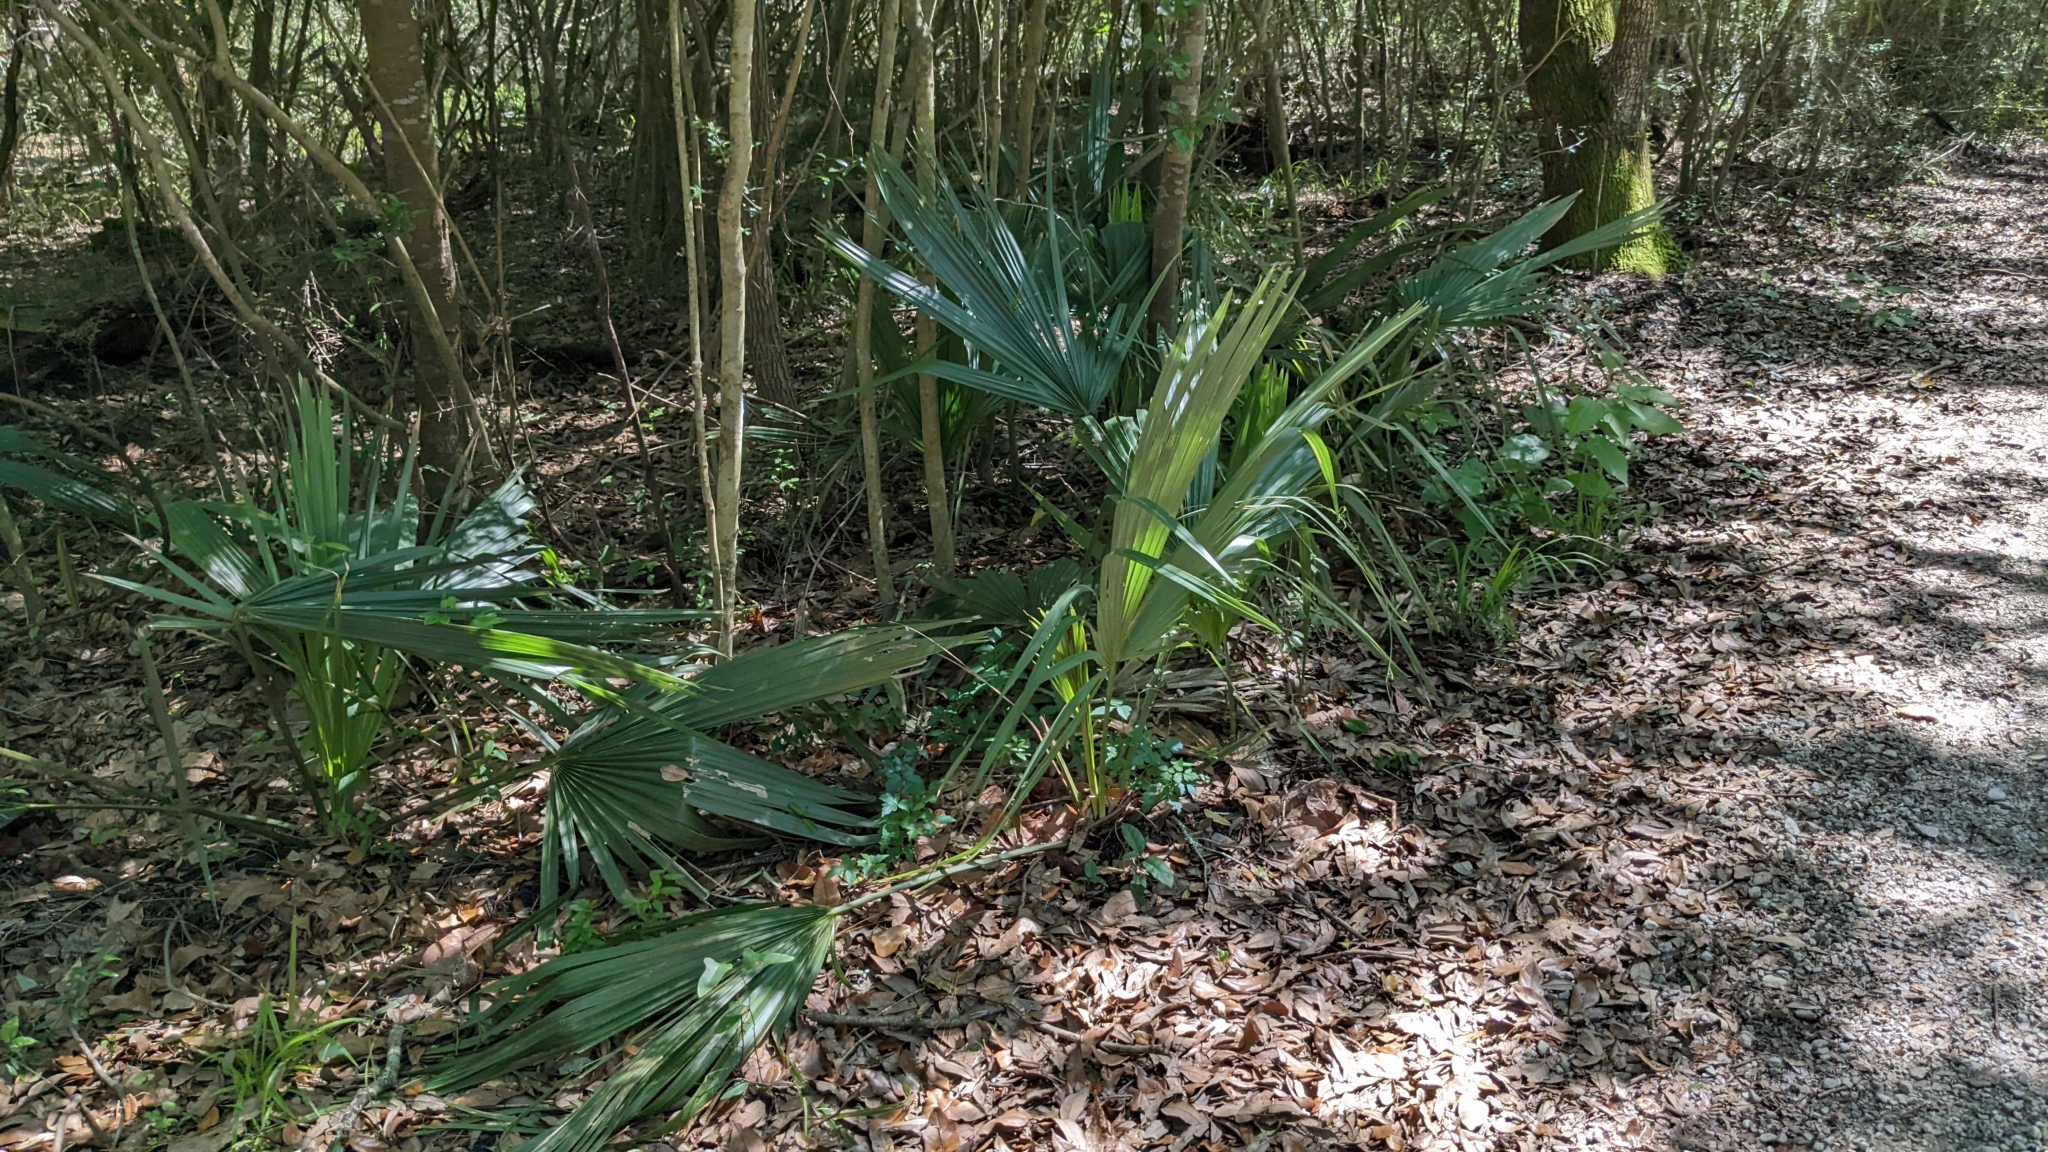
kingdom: Plantae
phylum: Tracheophyta
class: Liliopsida
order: Arecales
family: Arecaceae
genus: Sabal
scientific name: Sabal minor
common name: Dwarf palmetto
